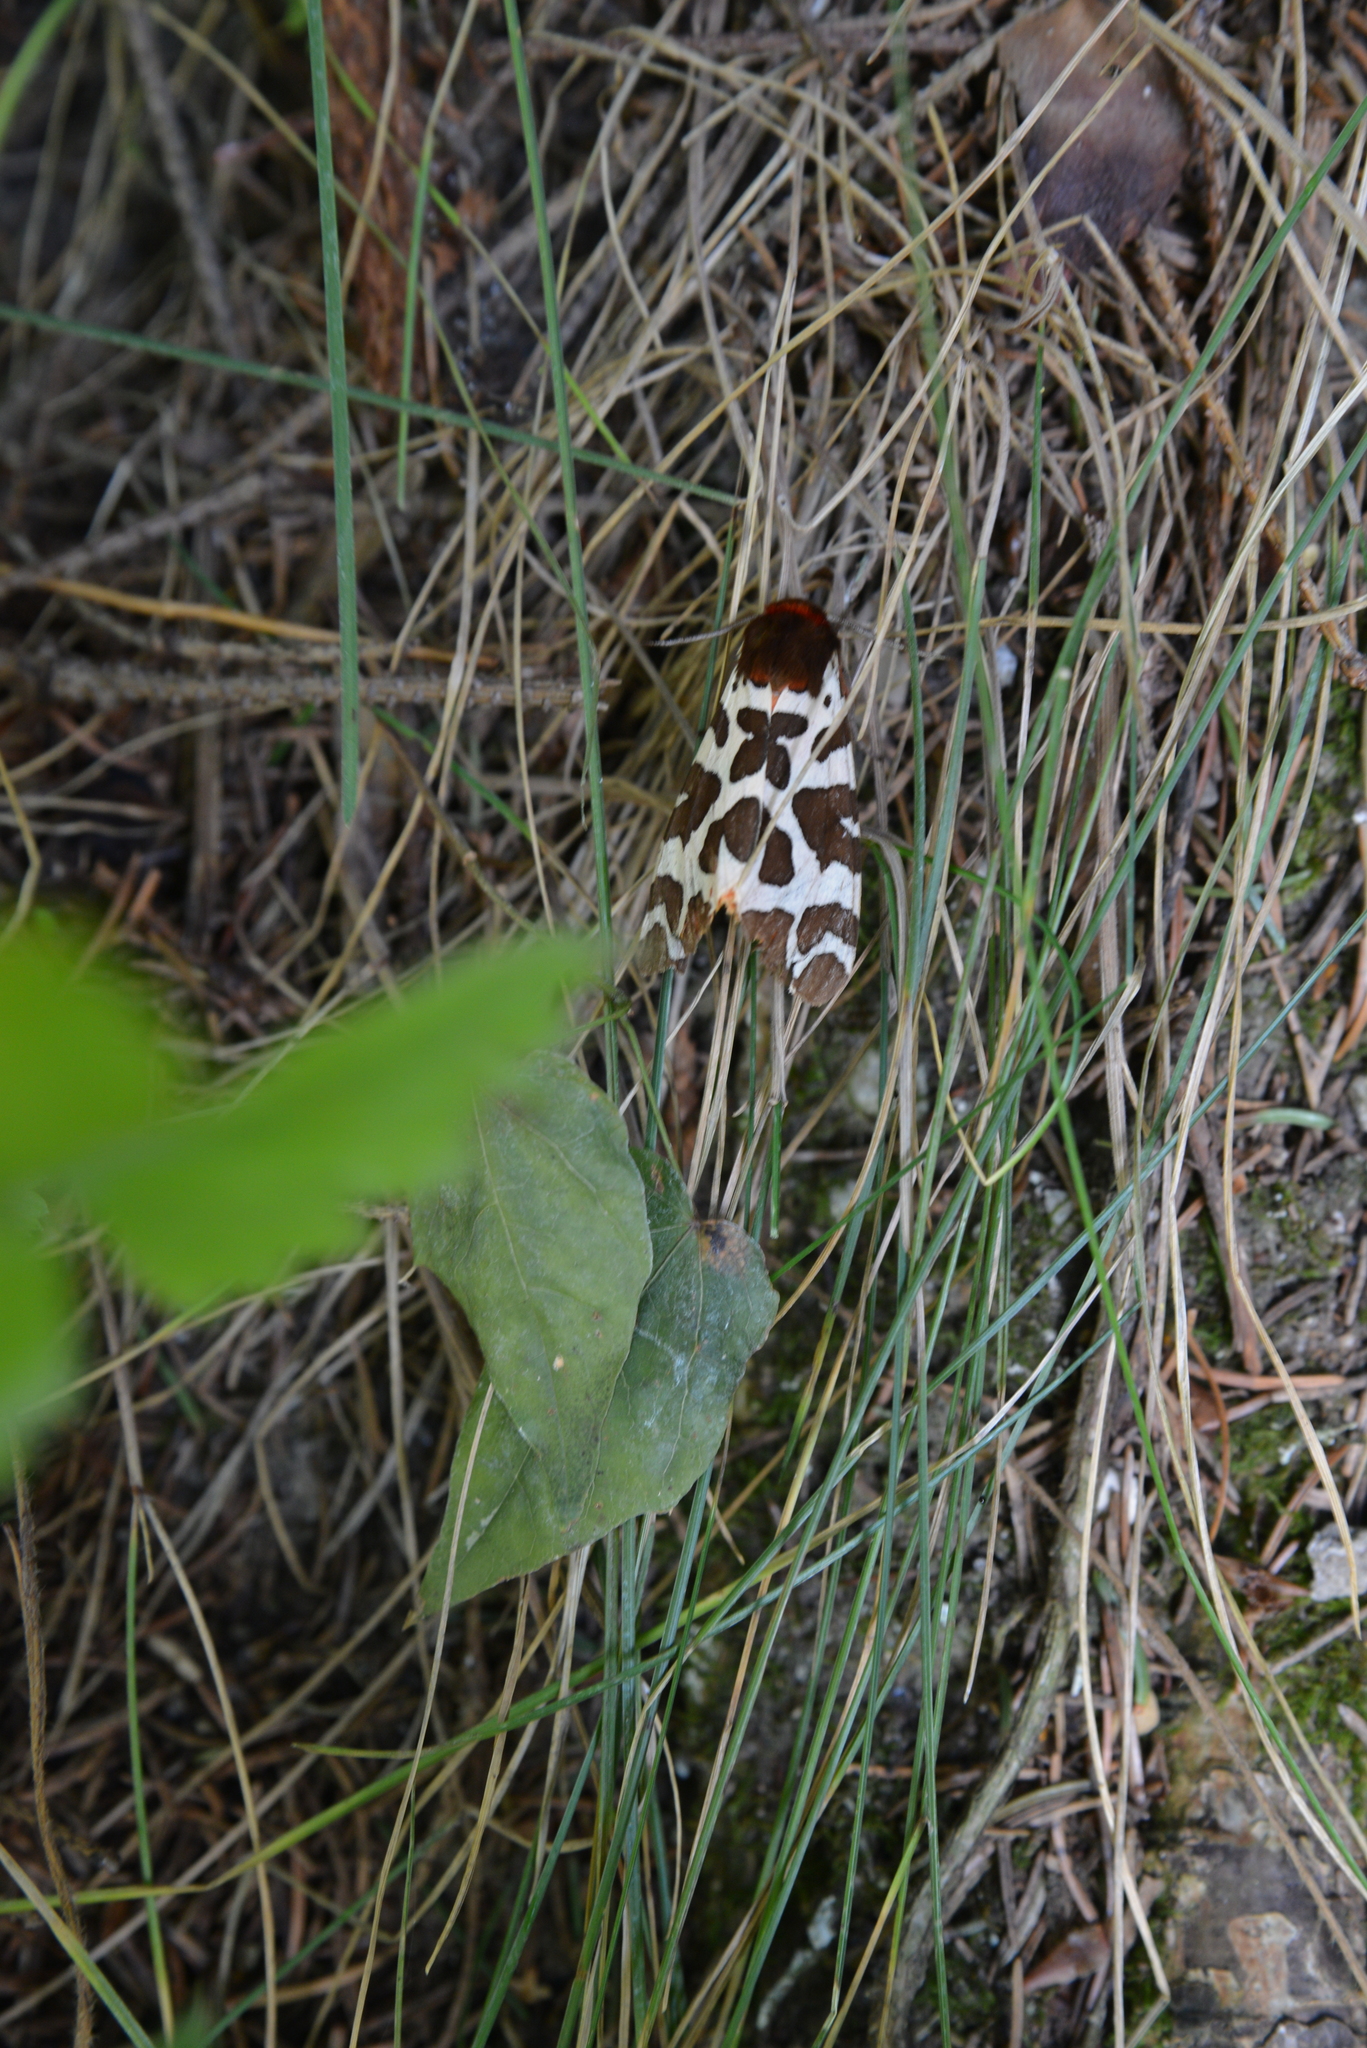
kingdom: Animalia
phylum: Arthropoda
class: Insecta
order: Lepidoptera
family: Erebidae
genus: Arctia
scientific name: Arctia caja
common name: Garden tiger
